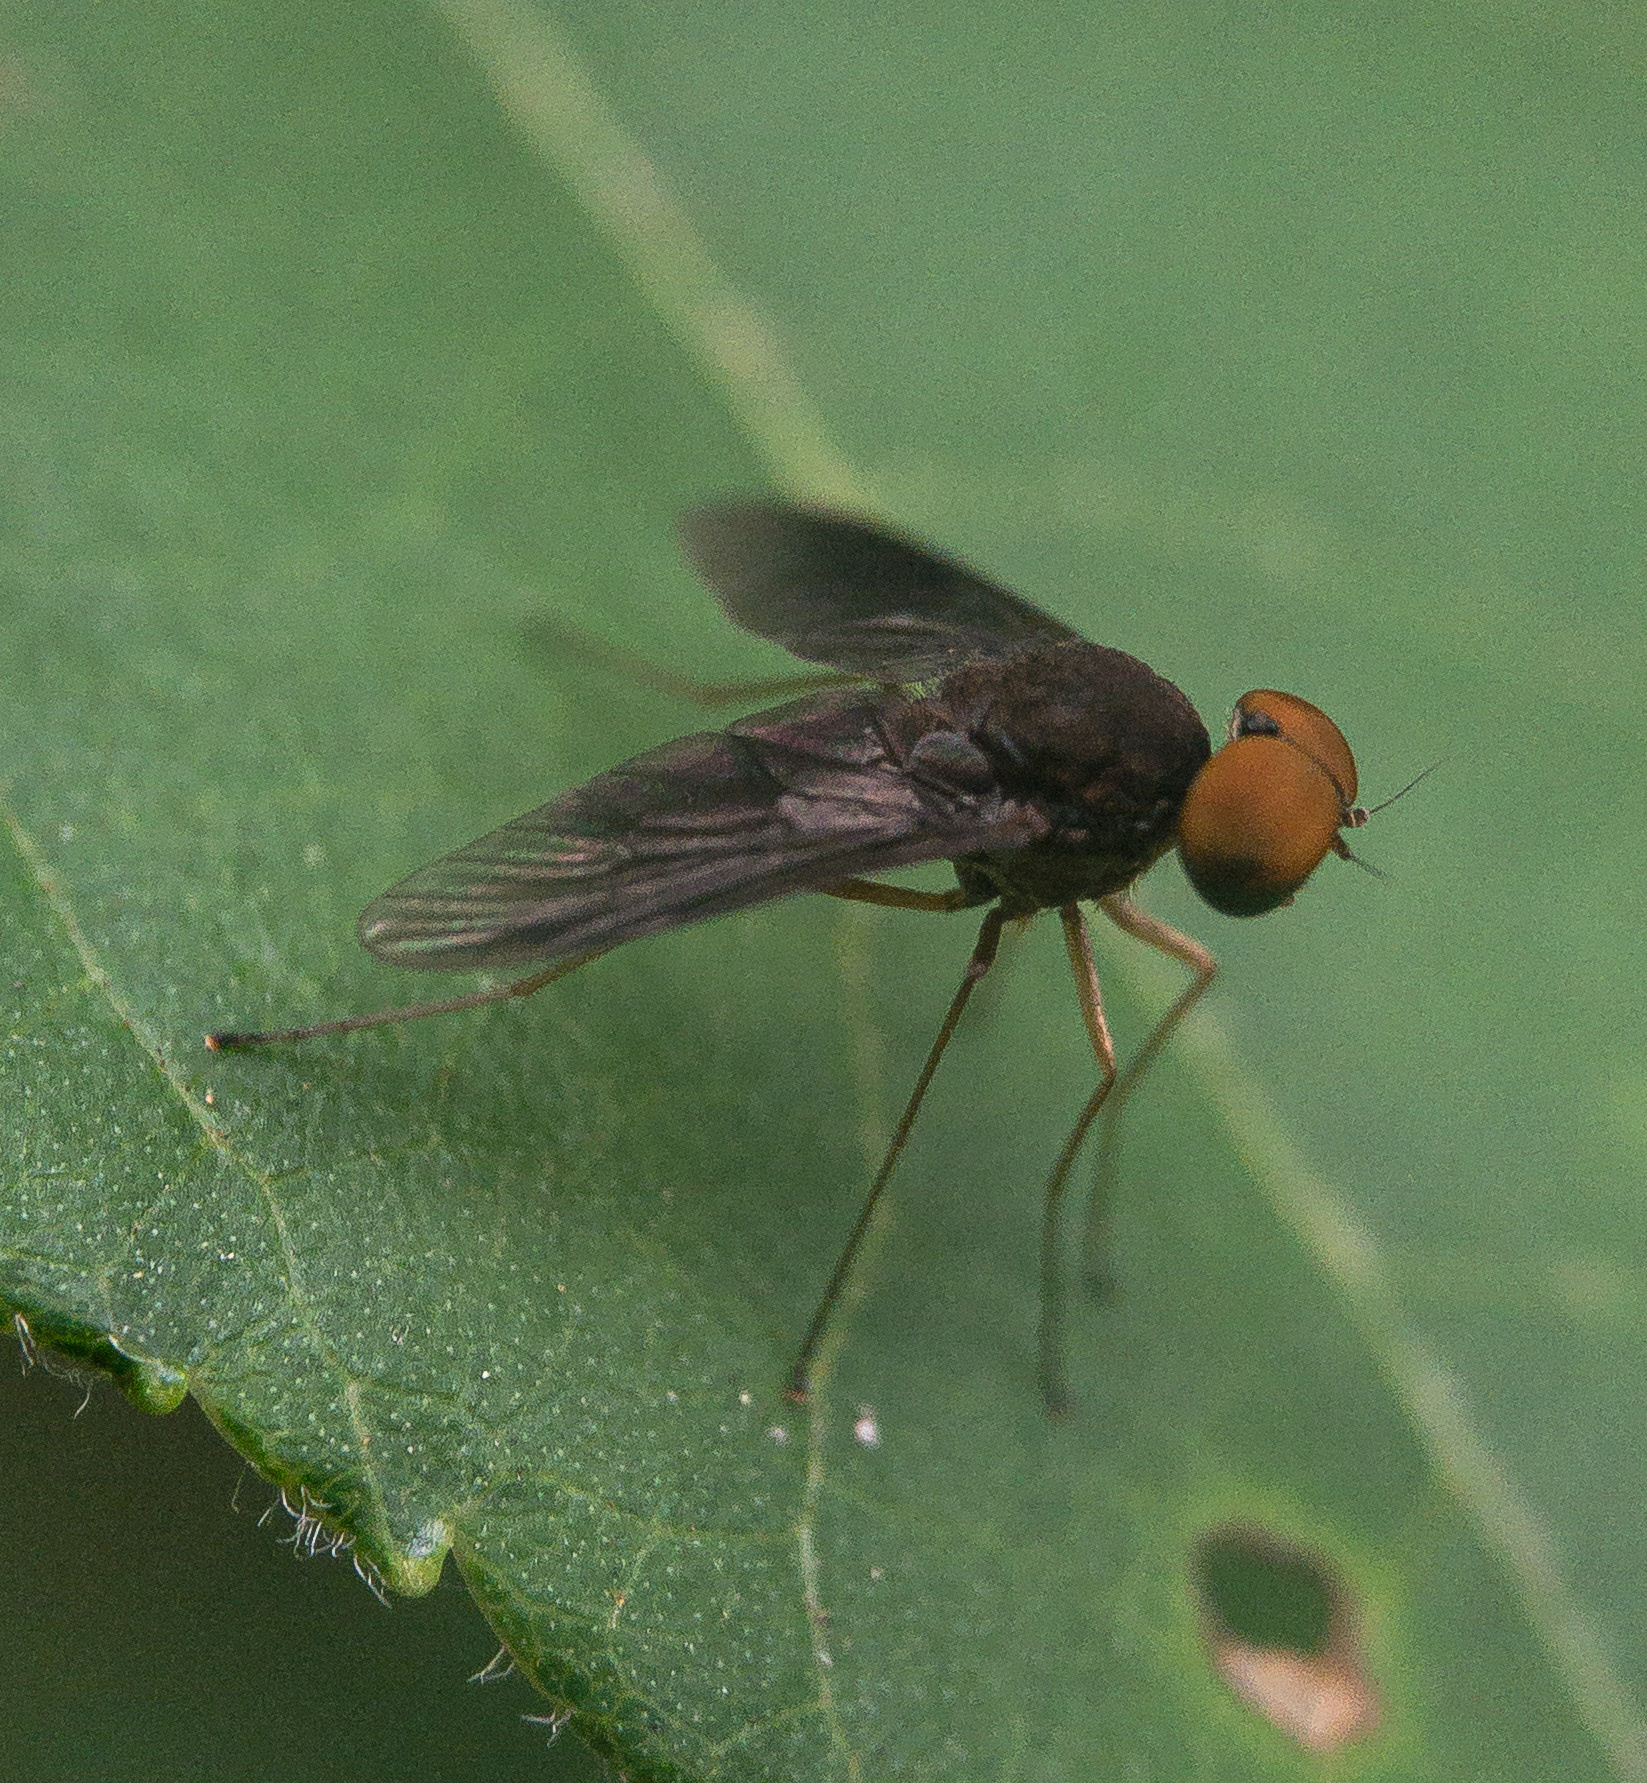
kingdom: Animalia
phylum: Arthropoda
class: Insecta
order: Diptera
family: Rhagionidae
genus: Chrysopilus
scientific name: Chrysopilus quadratus
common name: Quadrate snipe fly
